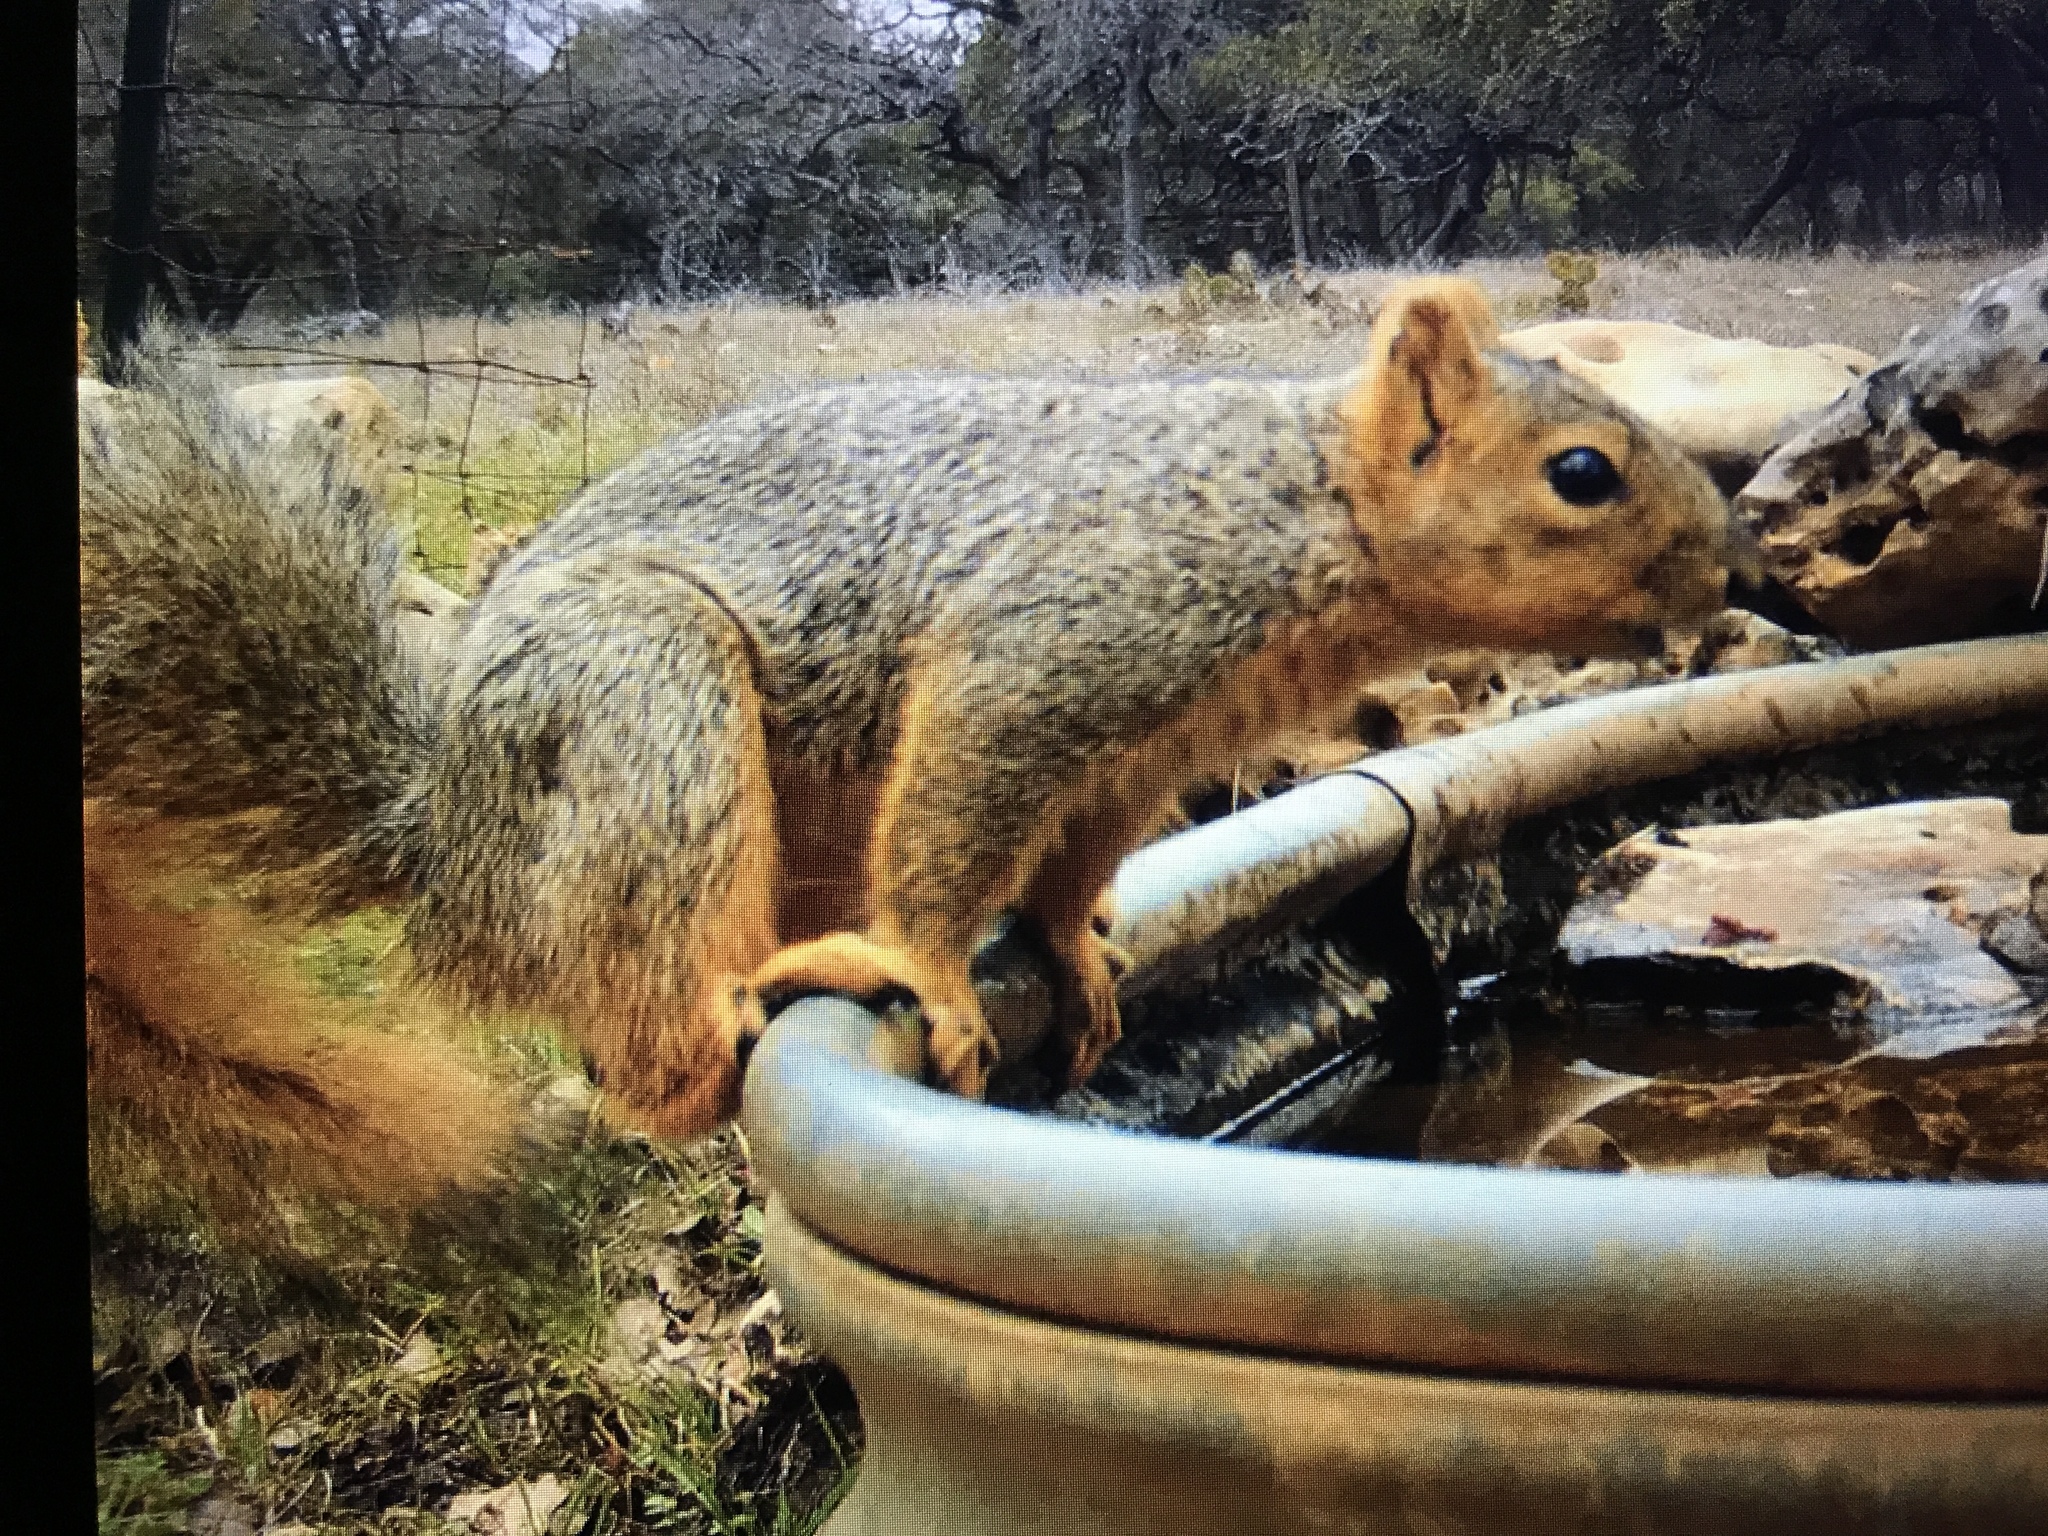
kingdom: Animalia
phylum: Chordata
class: Mammalia
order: Rodentia
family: Sciuridae
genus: Sciurus
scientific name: Sciurus niger
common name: Fox squirrel
